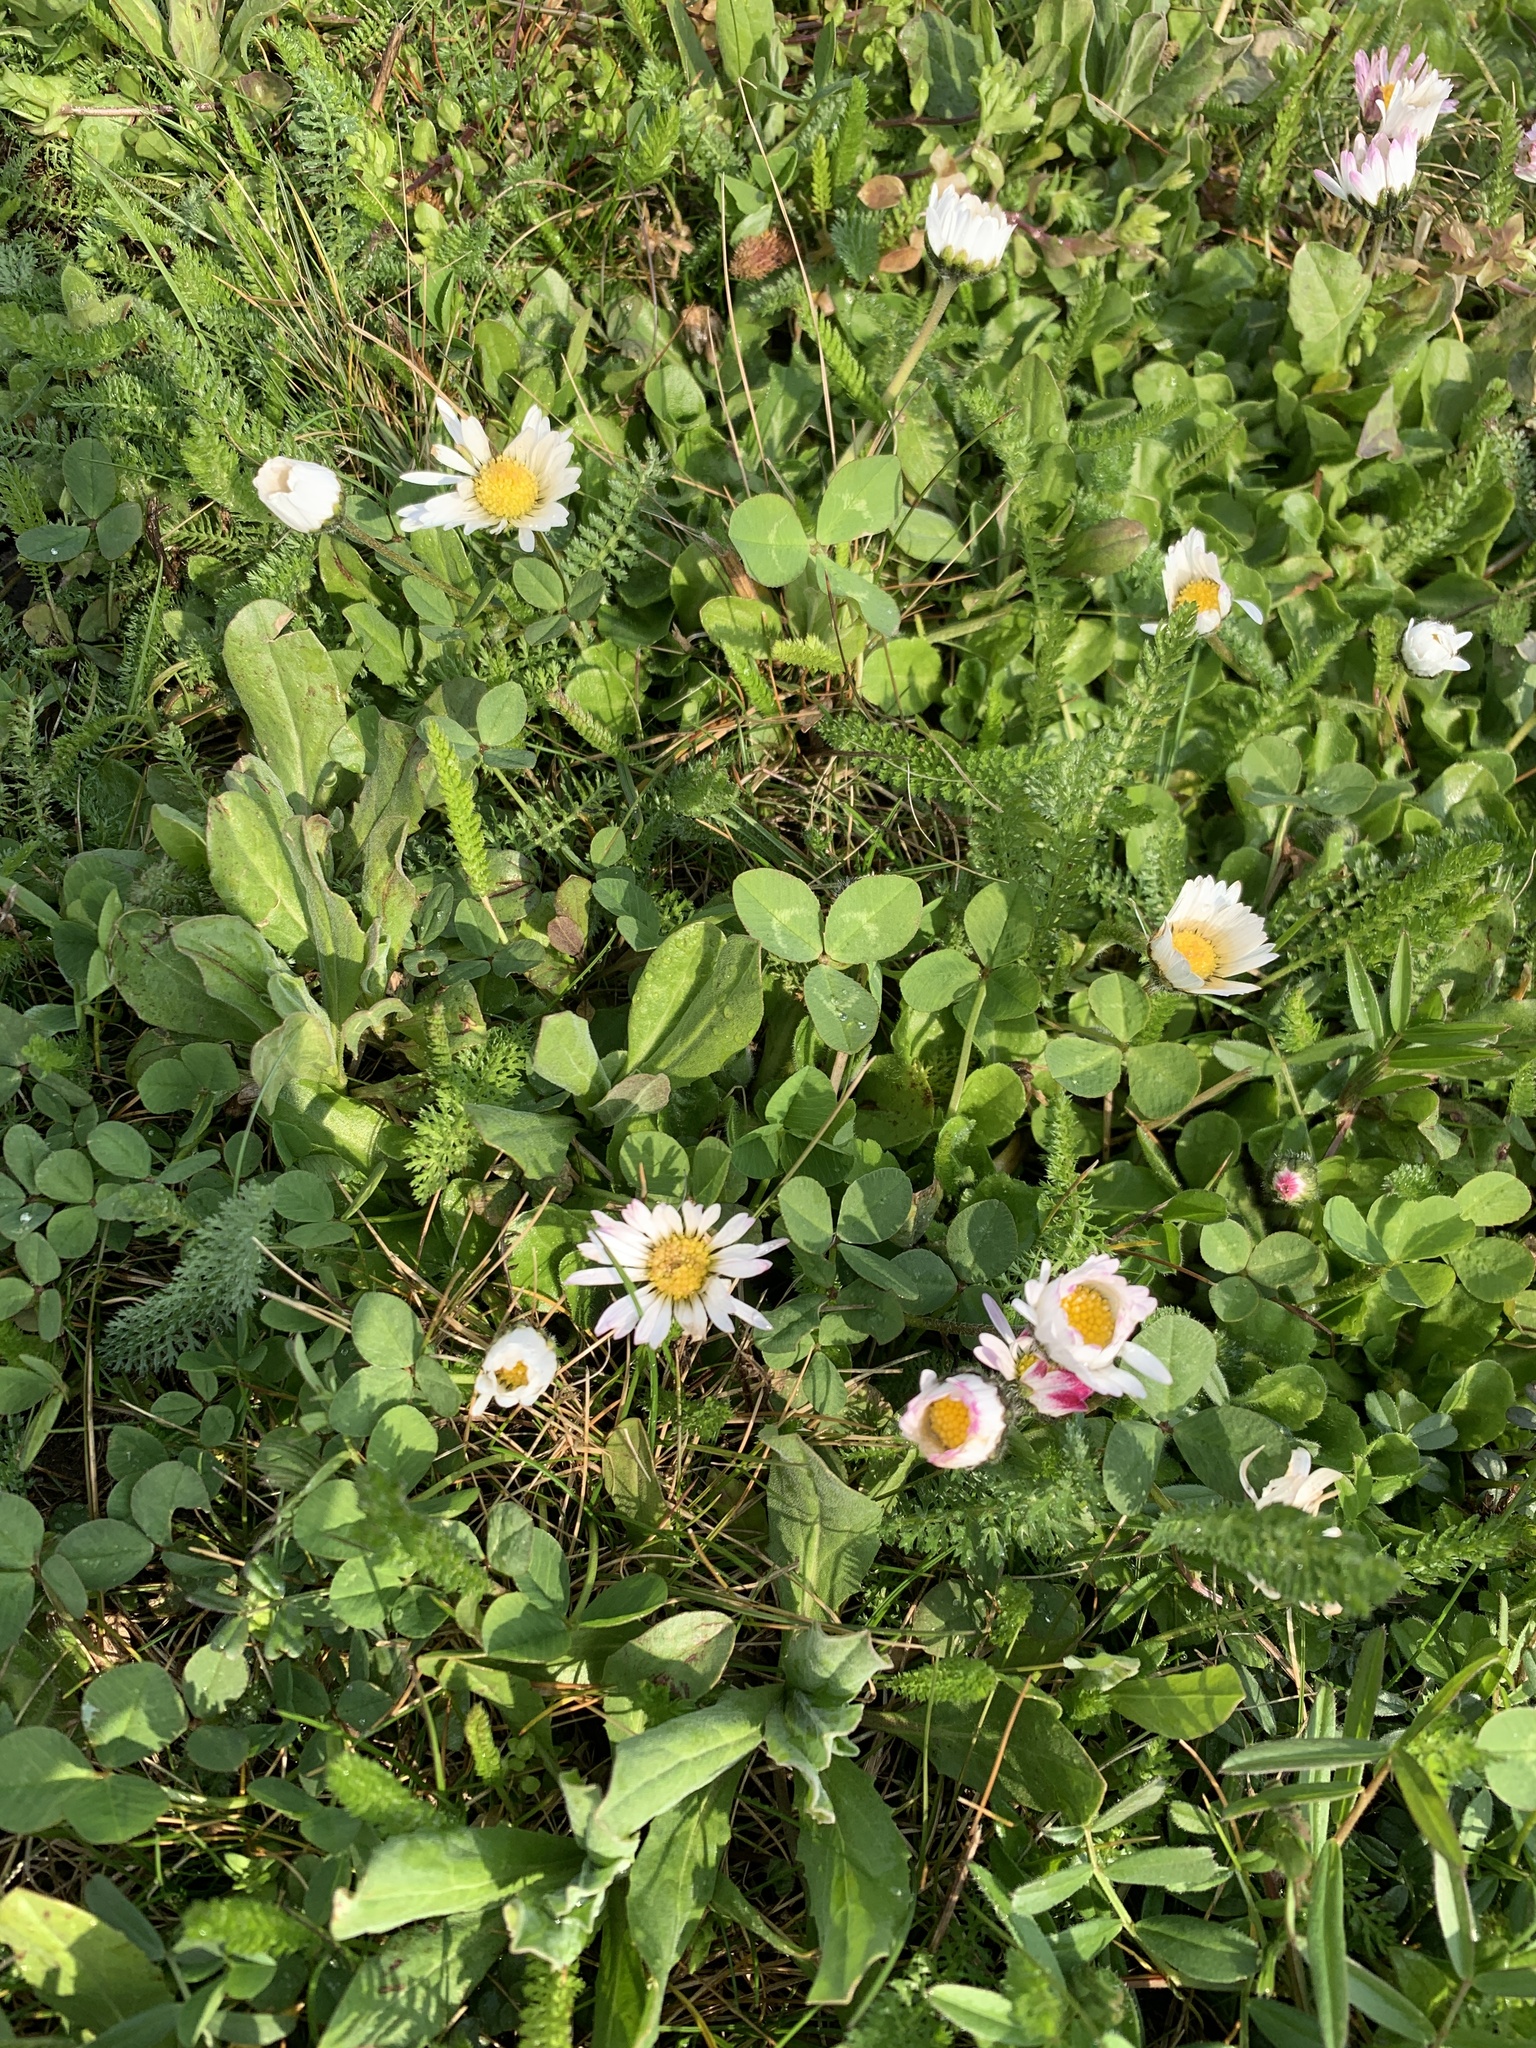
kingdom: Plantae
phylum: Tracheophyta
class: Magnoliopsida
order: Asterales
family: Asteraceae
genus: Bellis
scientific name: Bellis perennis
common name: Lawndaisy
